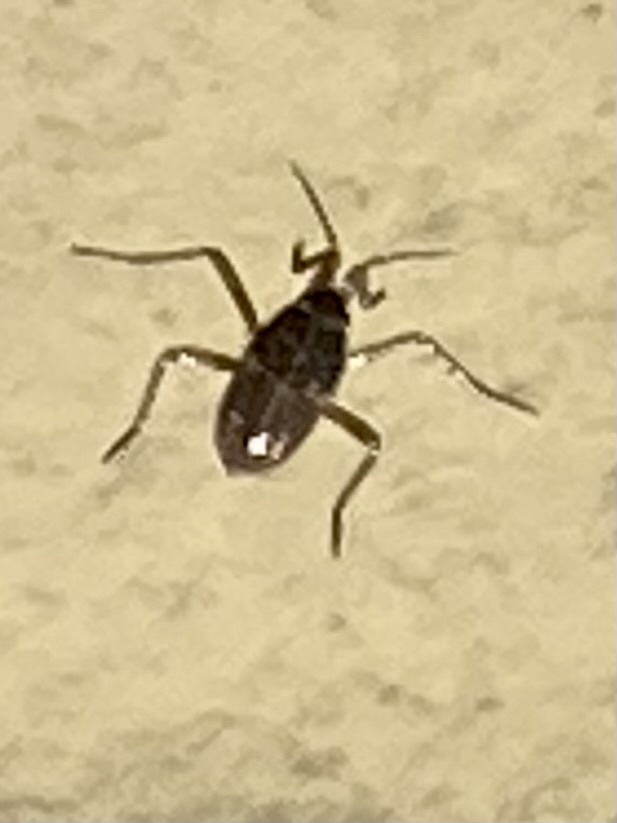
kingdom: Animalia
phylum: Arthropoda
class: Insecta
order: Hemiptera
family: Veliidae
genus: Velia
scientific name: Velia
